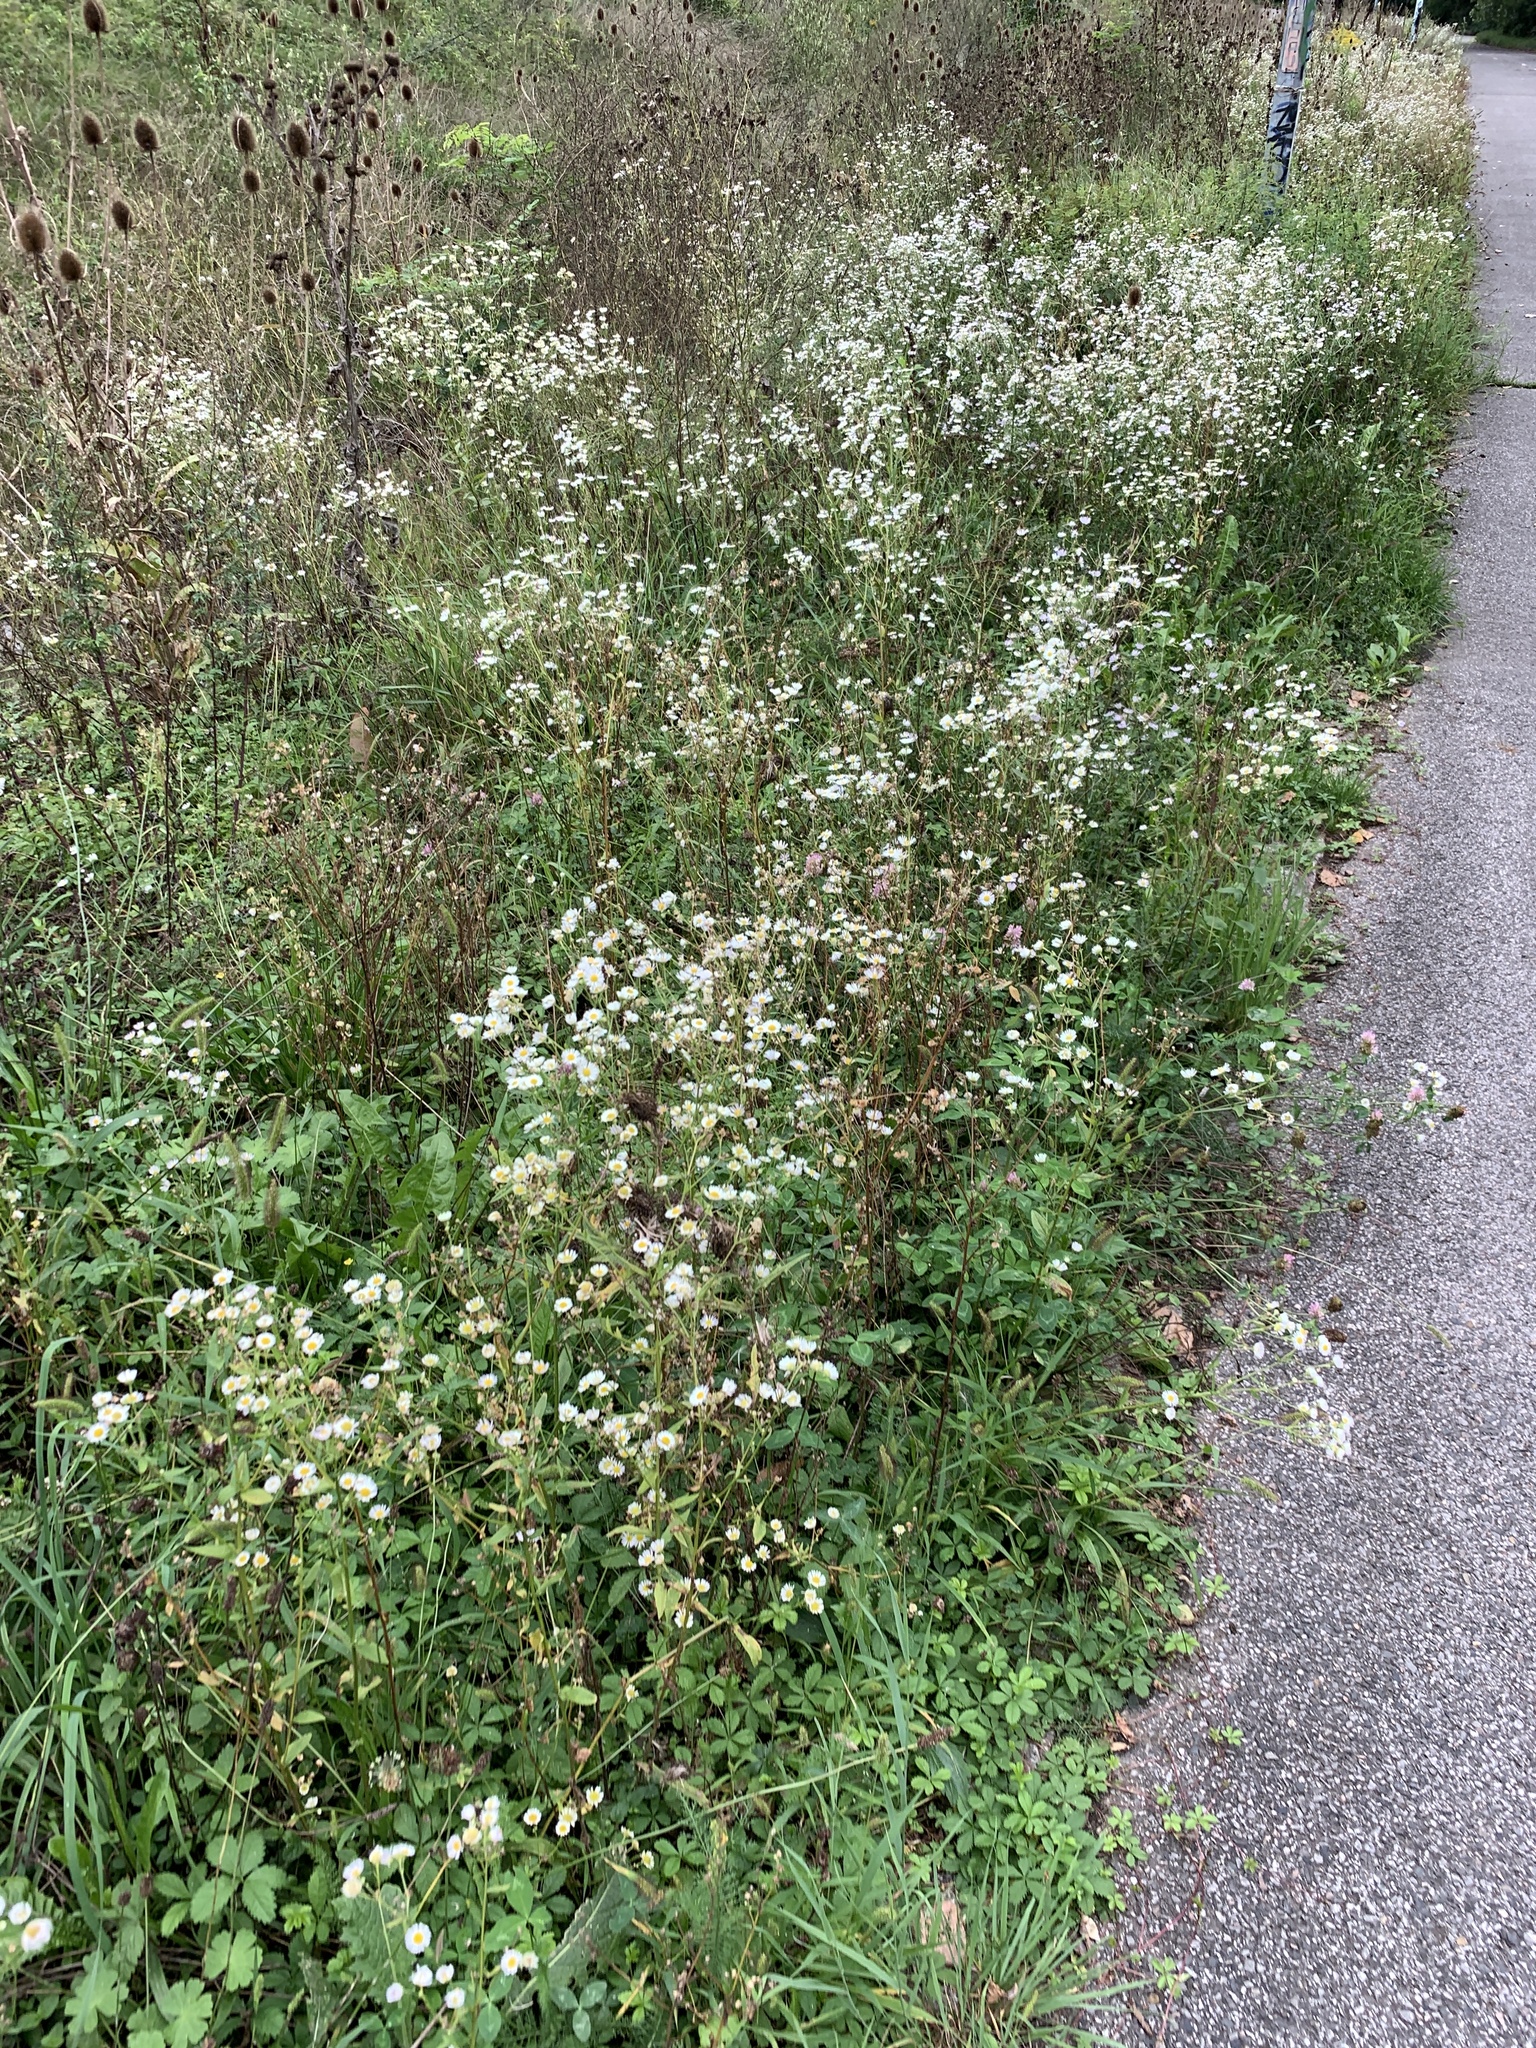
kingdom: Plantae
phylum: Tracheophyta
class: Magnoliopsida
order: Asterales
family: Asteraceae
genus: Erigeron
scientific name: Erigeron annuus
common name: Tall fleabane
